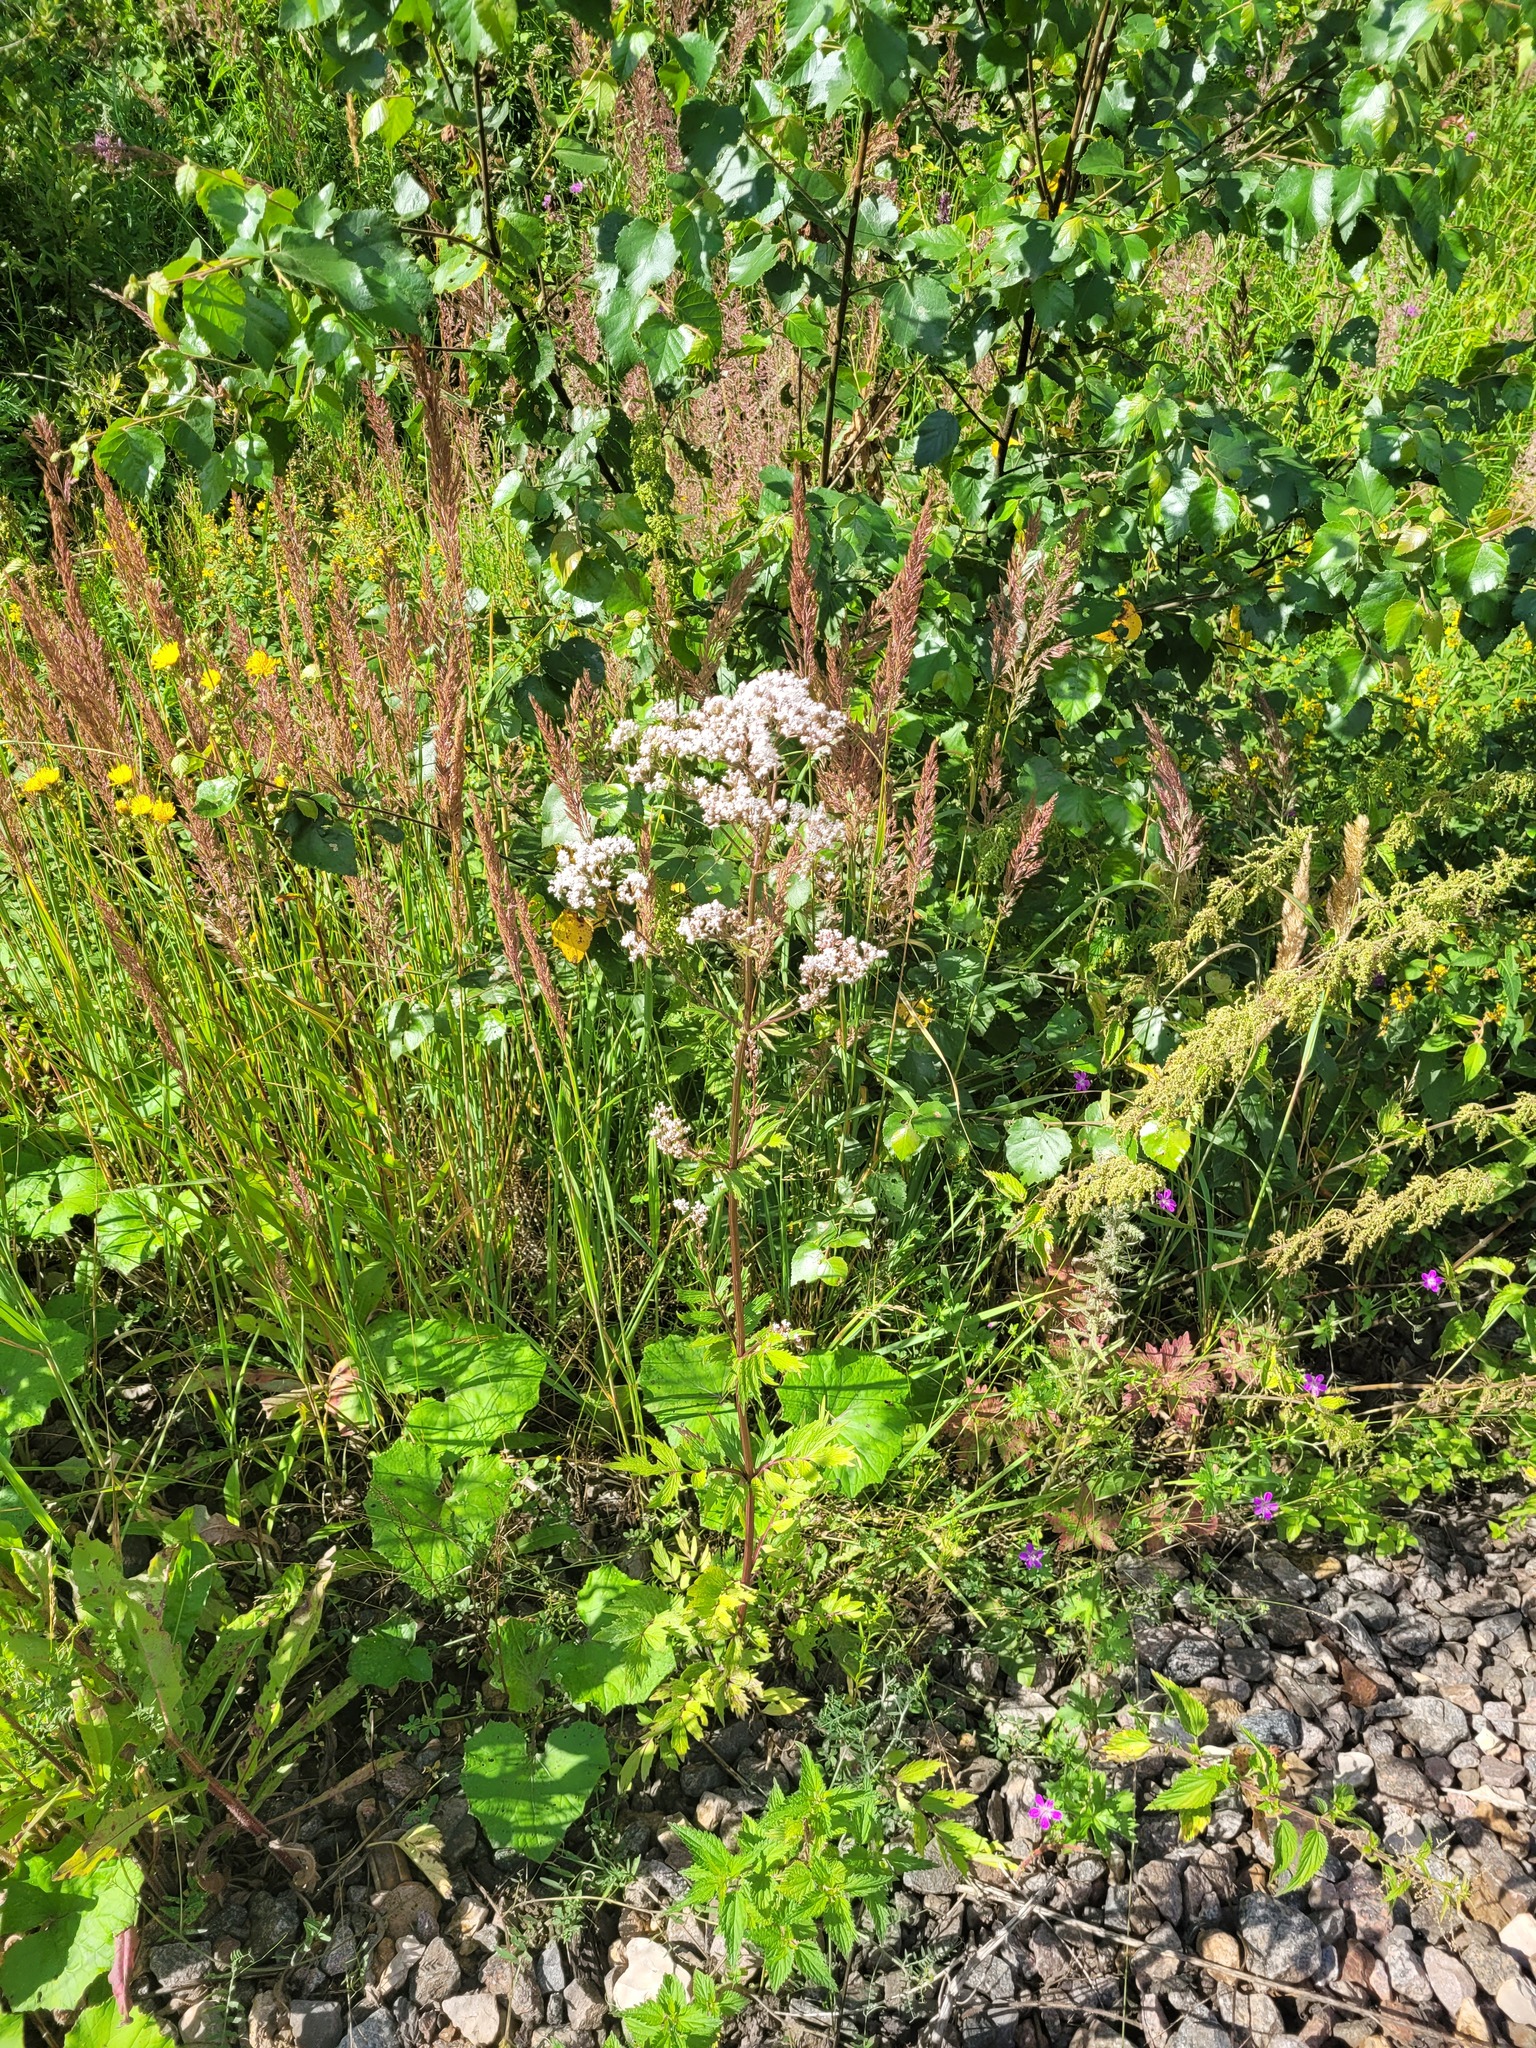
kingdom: Plantae
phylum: Tracheophyta
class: Magnoliopsida
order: Dipsacales
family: Caprifoliaceae
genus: Valeriana
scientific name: Valeriana officinalis
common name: Common valerian
